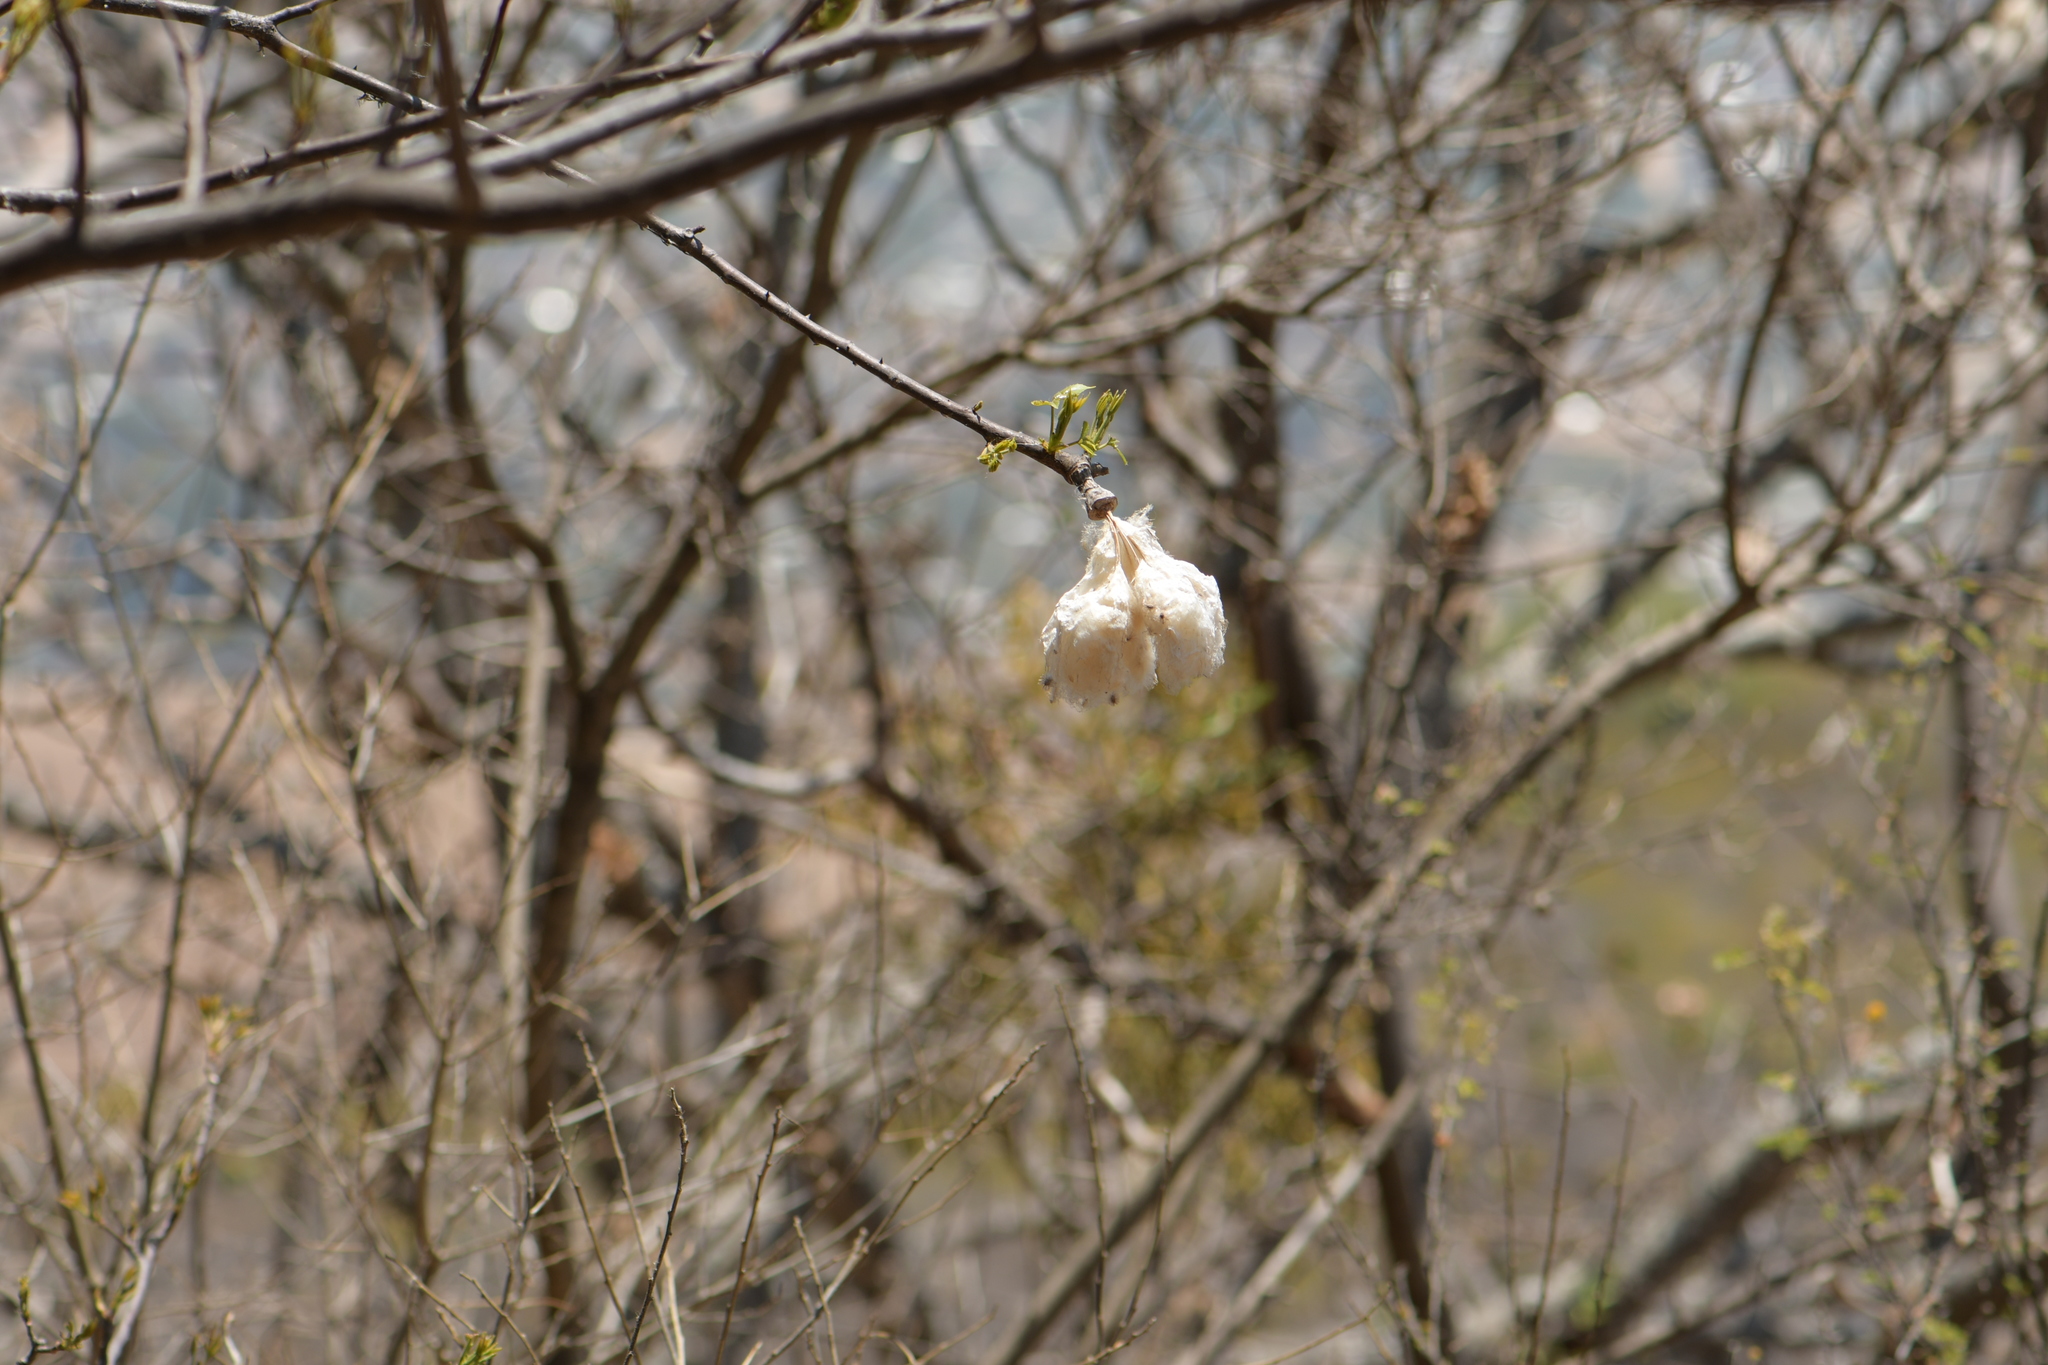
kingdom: Plantae
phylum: Tracheophyta
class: Magnoliopsida
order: Malvales
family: Malvaceae
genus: Ceiba
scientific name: Ceiba aesculifolia
